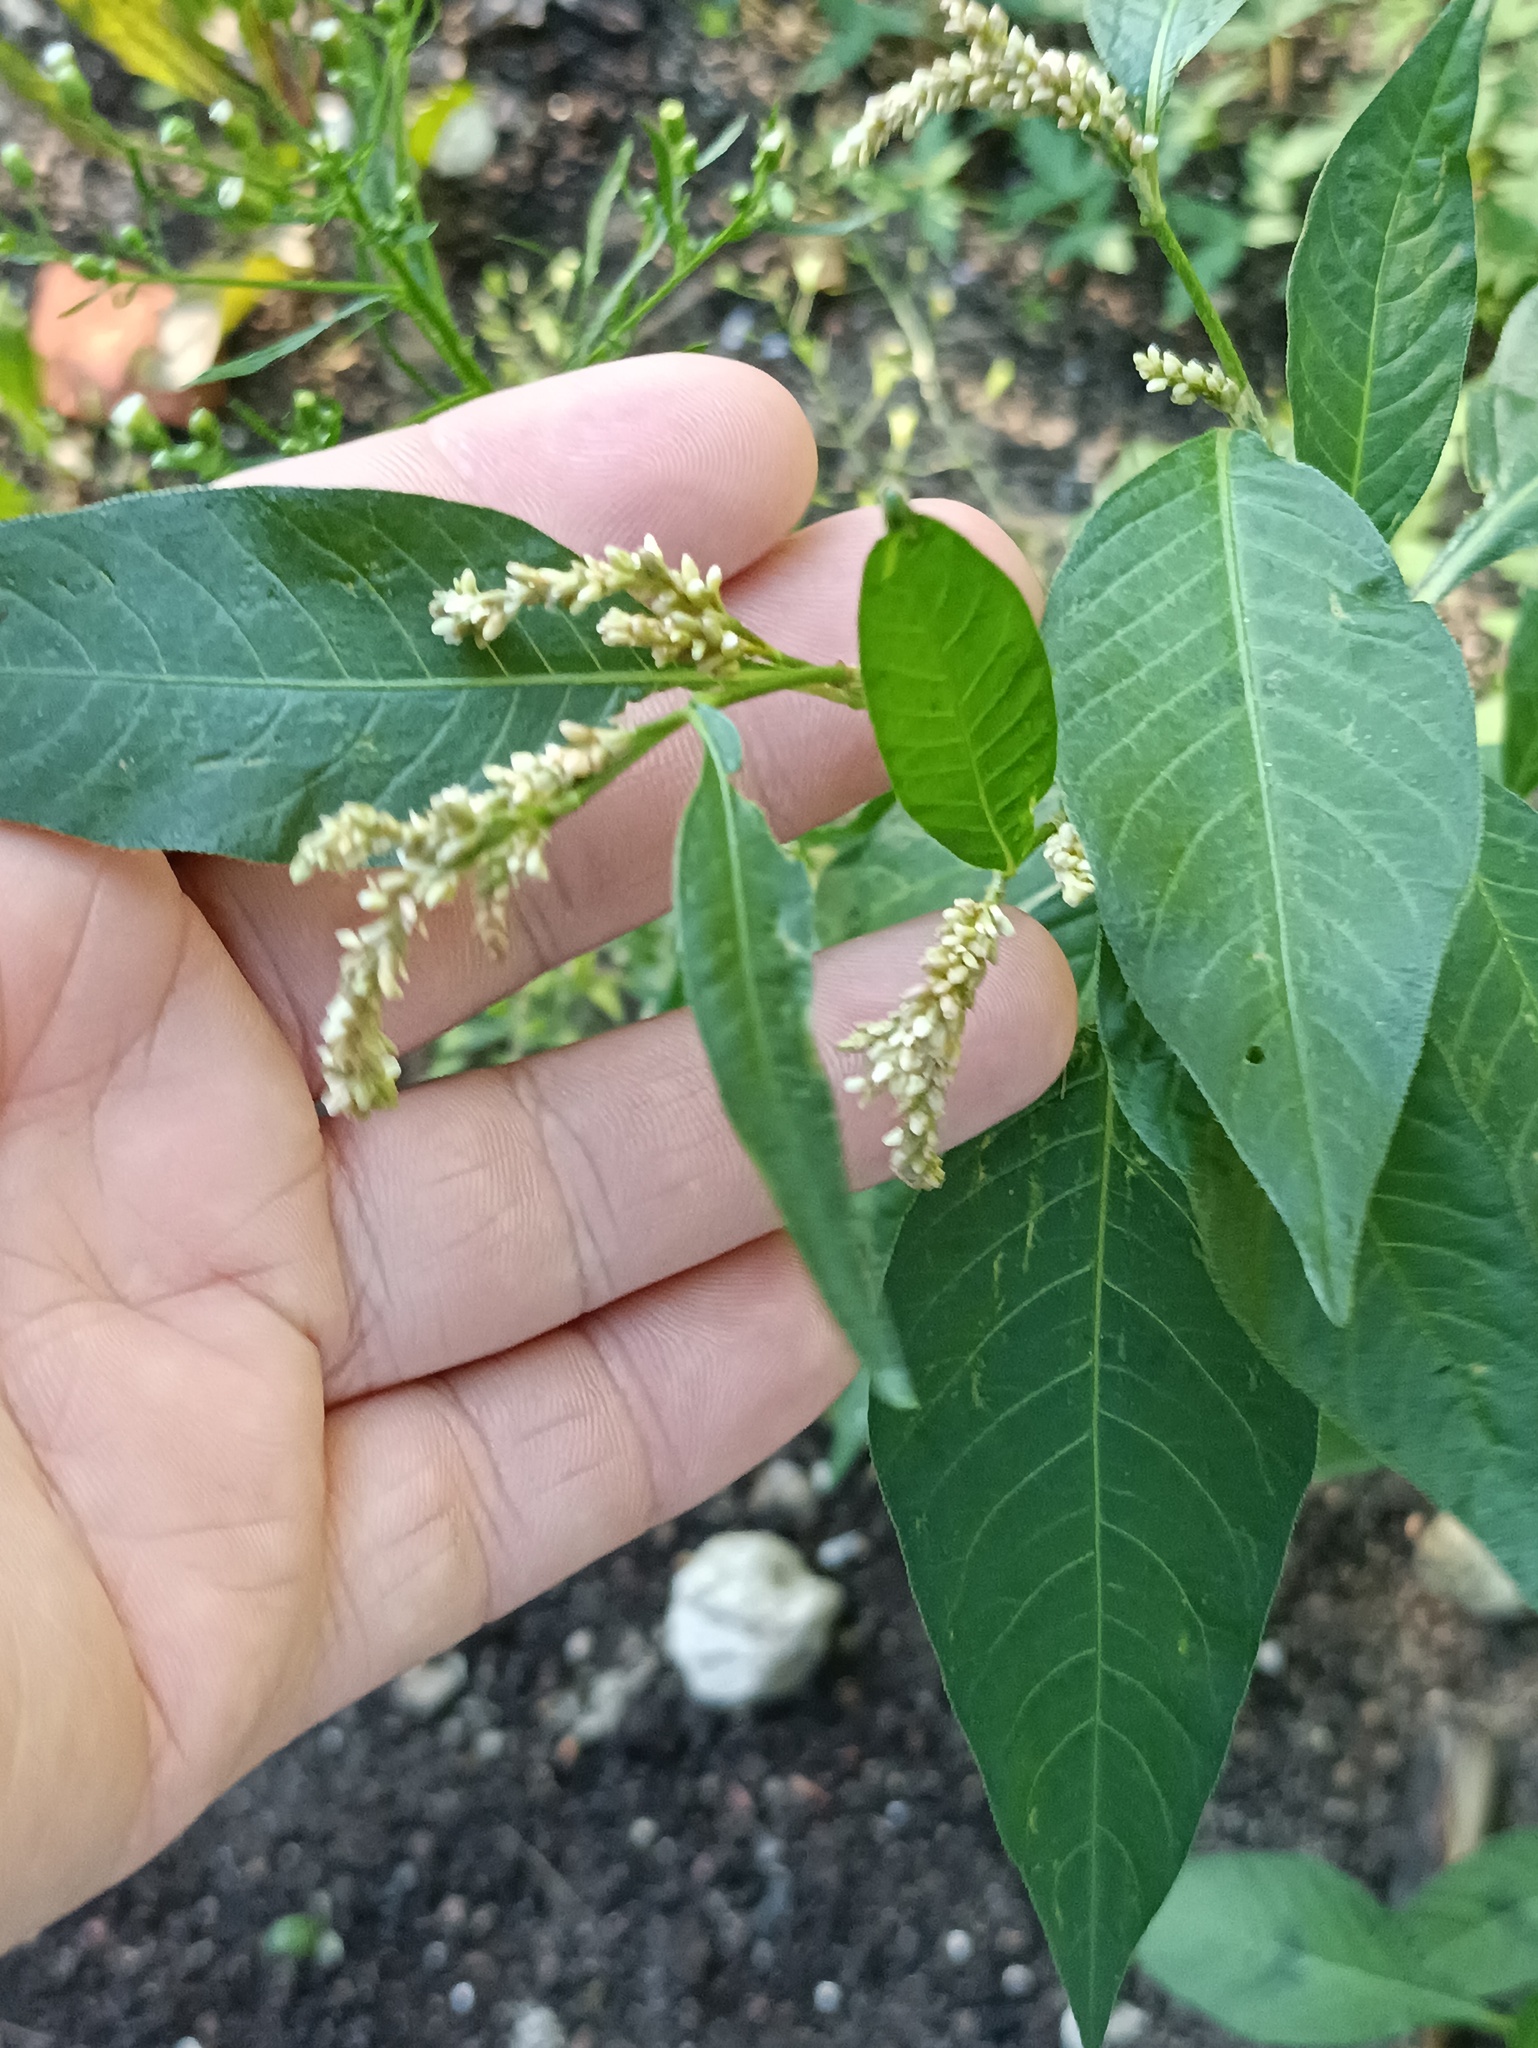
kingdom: Plantae
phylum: Tracheophyta
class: Magnoliopsida
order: Caryophyllales
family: Polygonaceae
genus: Persicaria
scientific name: Persicaria lapathifolia
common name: Curlytop knotweed
